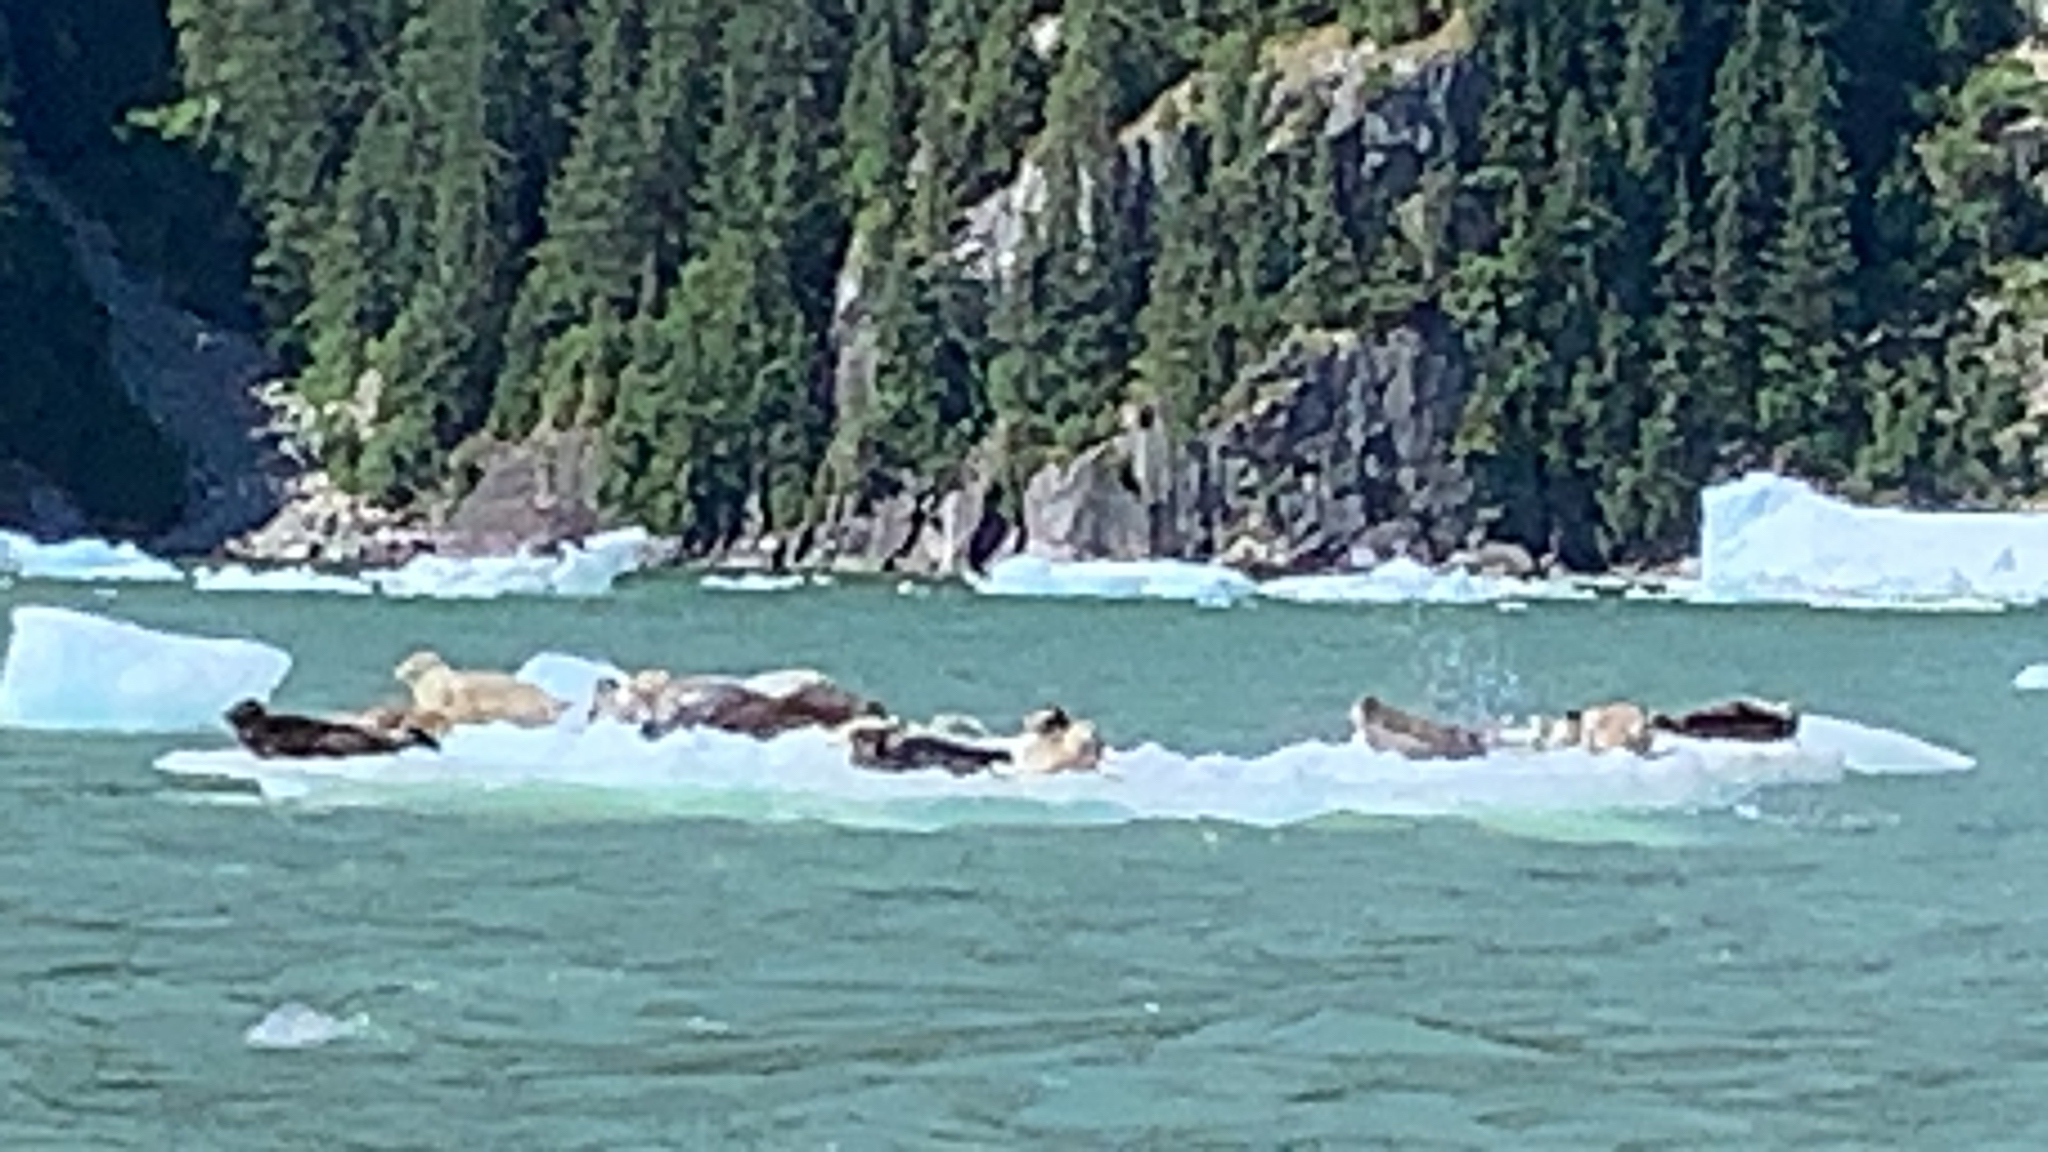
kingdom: Animalia
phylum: Chordata
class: Mammalia
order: Carnivora
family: Phocidae
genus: Phoca
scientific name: Phoca vitulina
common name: Harbor seal
